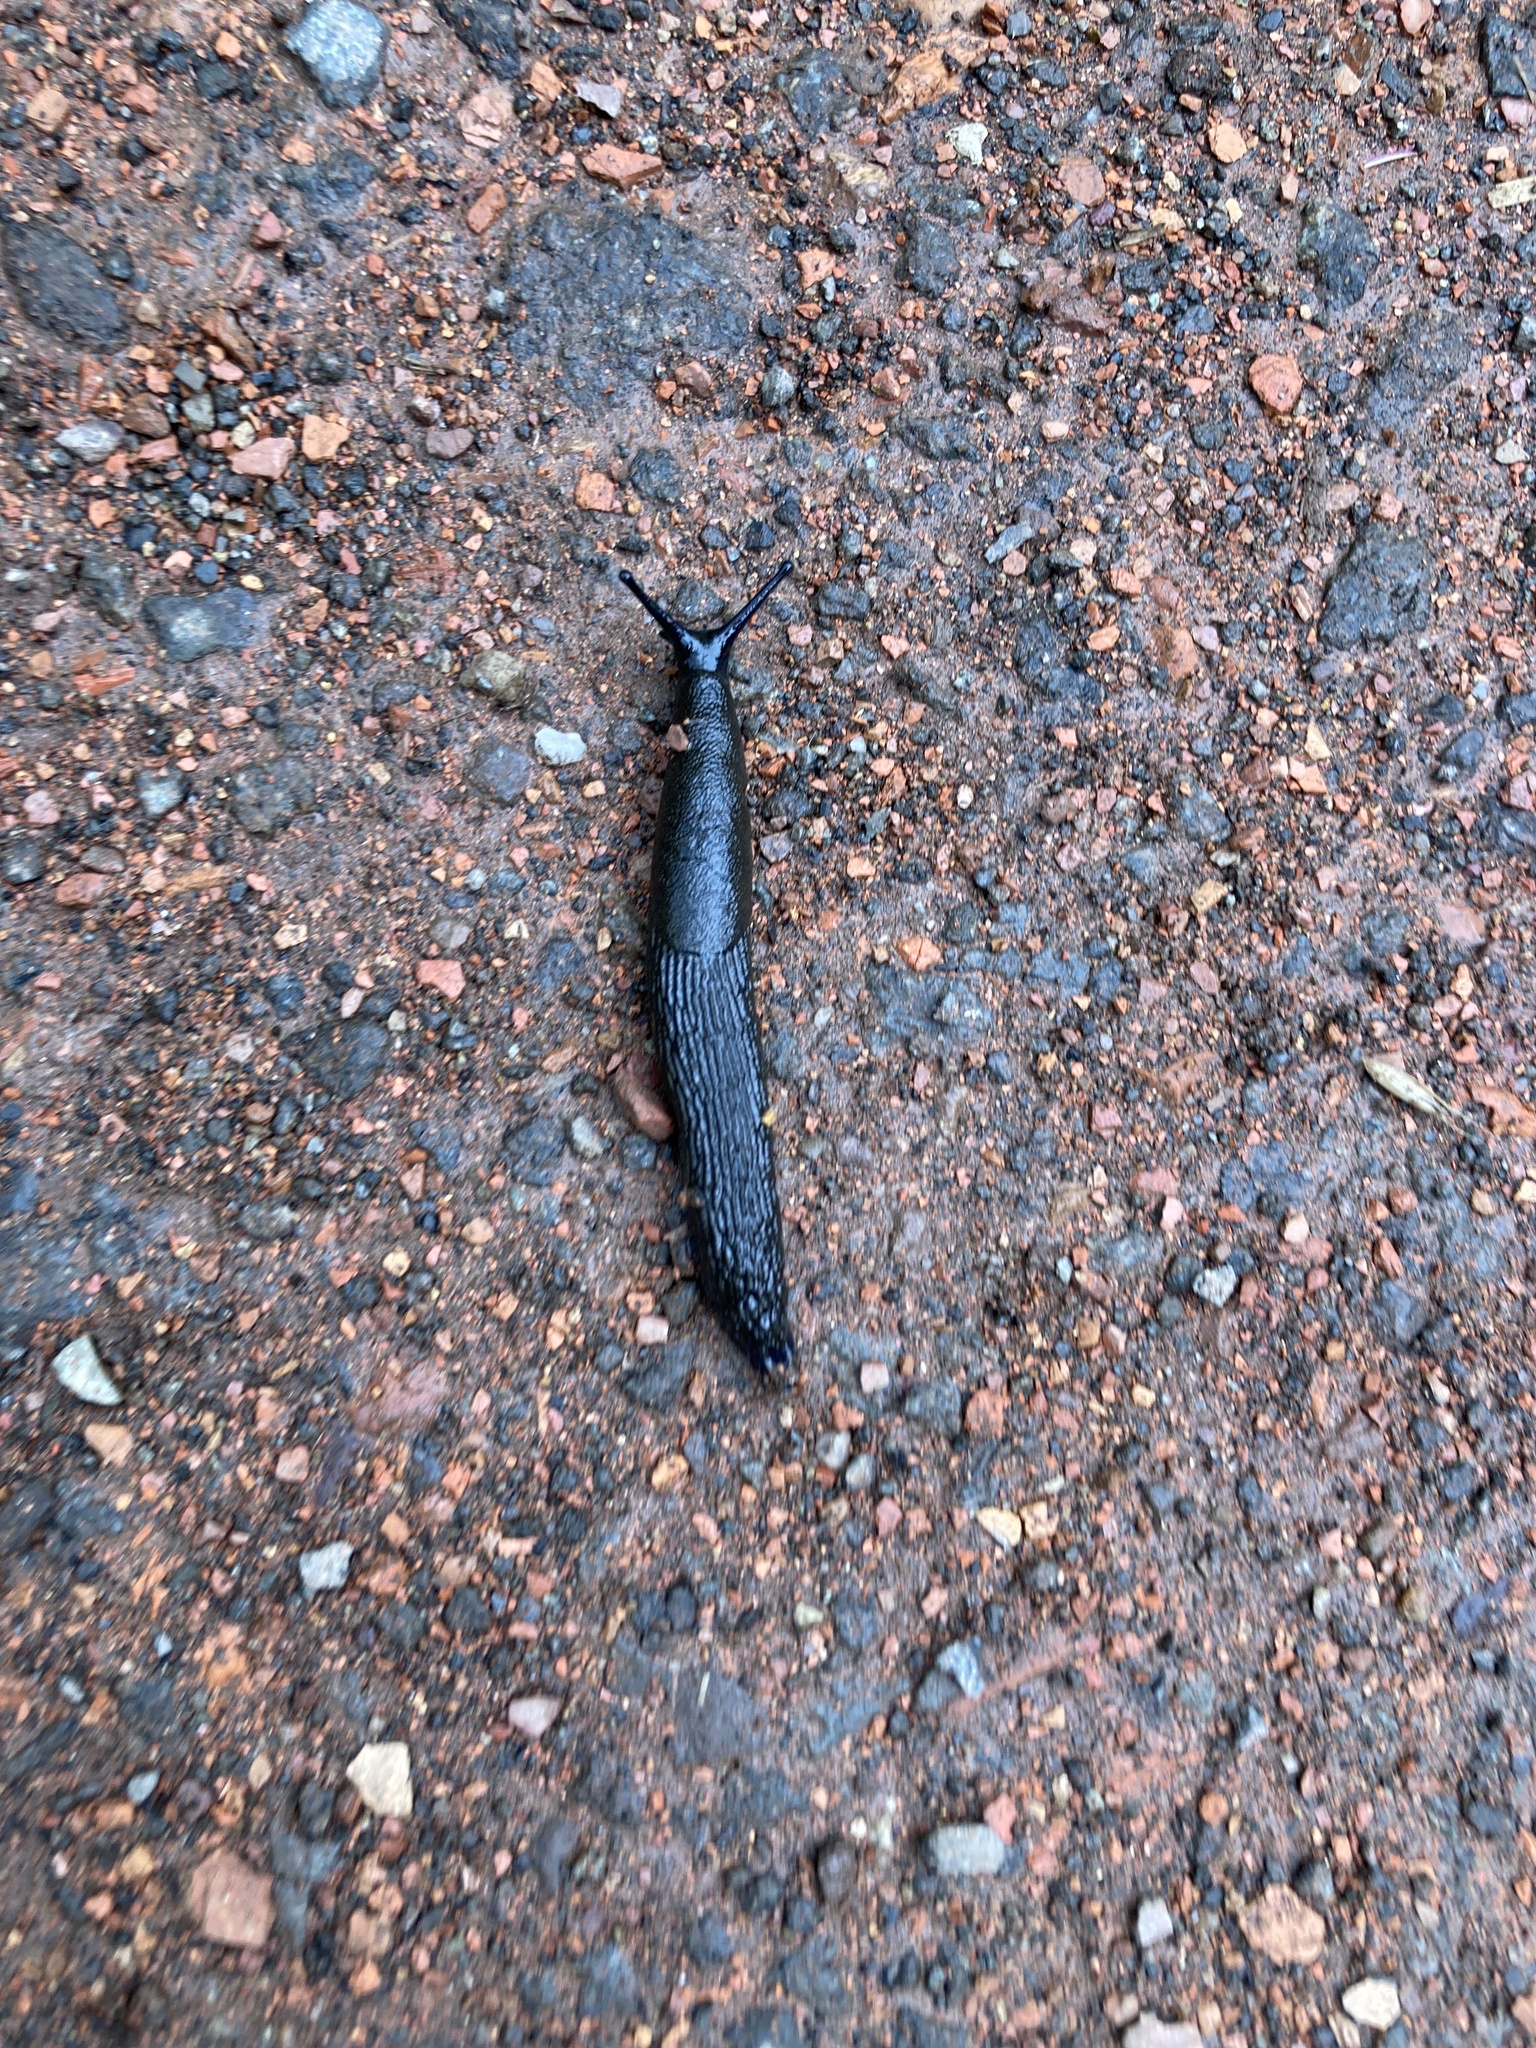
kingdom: Animalia
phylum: Mollusca
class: Gastropoda
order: Stylommatophora
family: Arionidae
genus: Arion
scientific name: Arion ater
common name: Black arion
